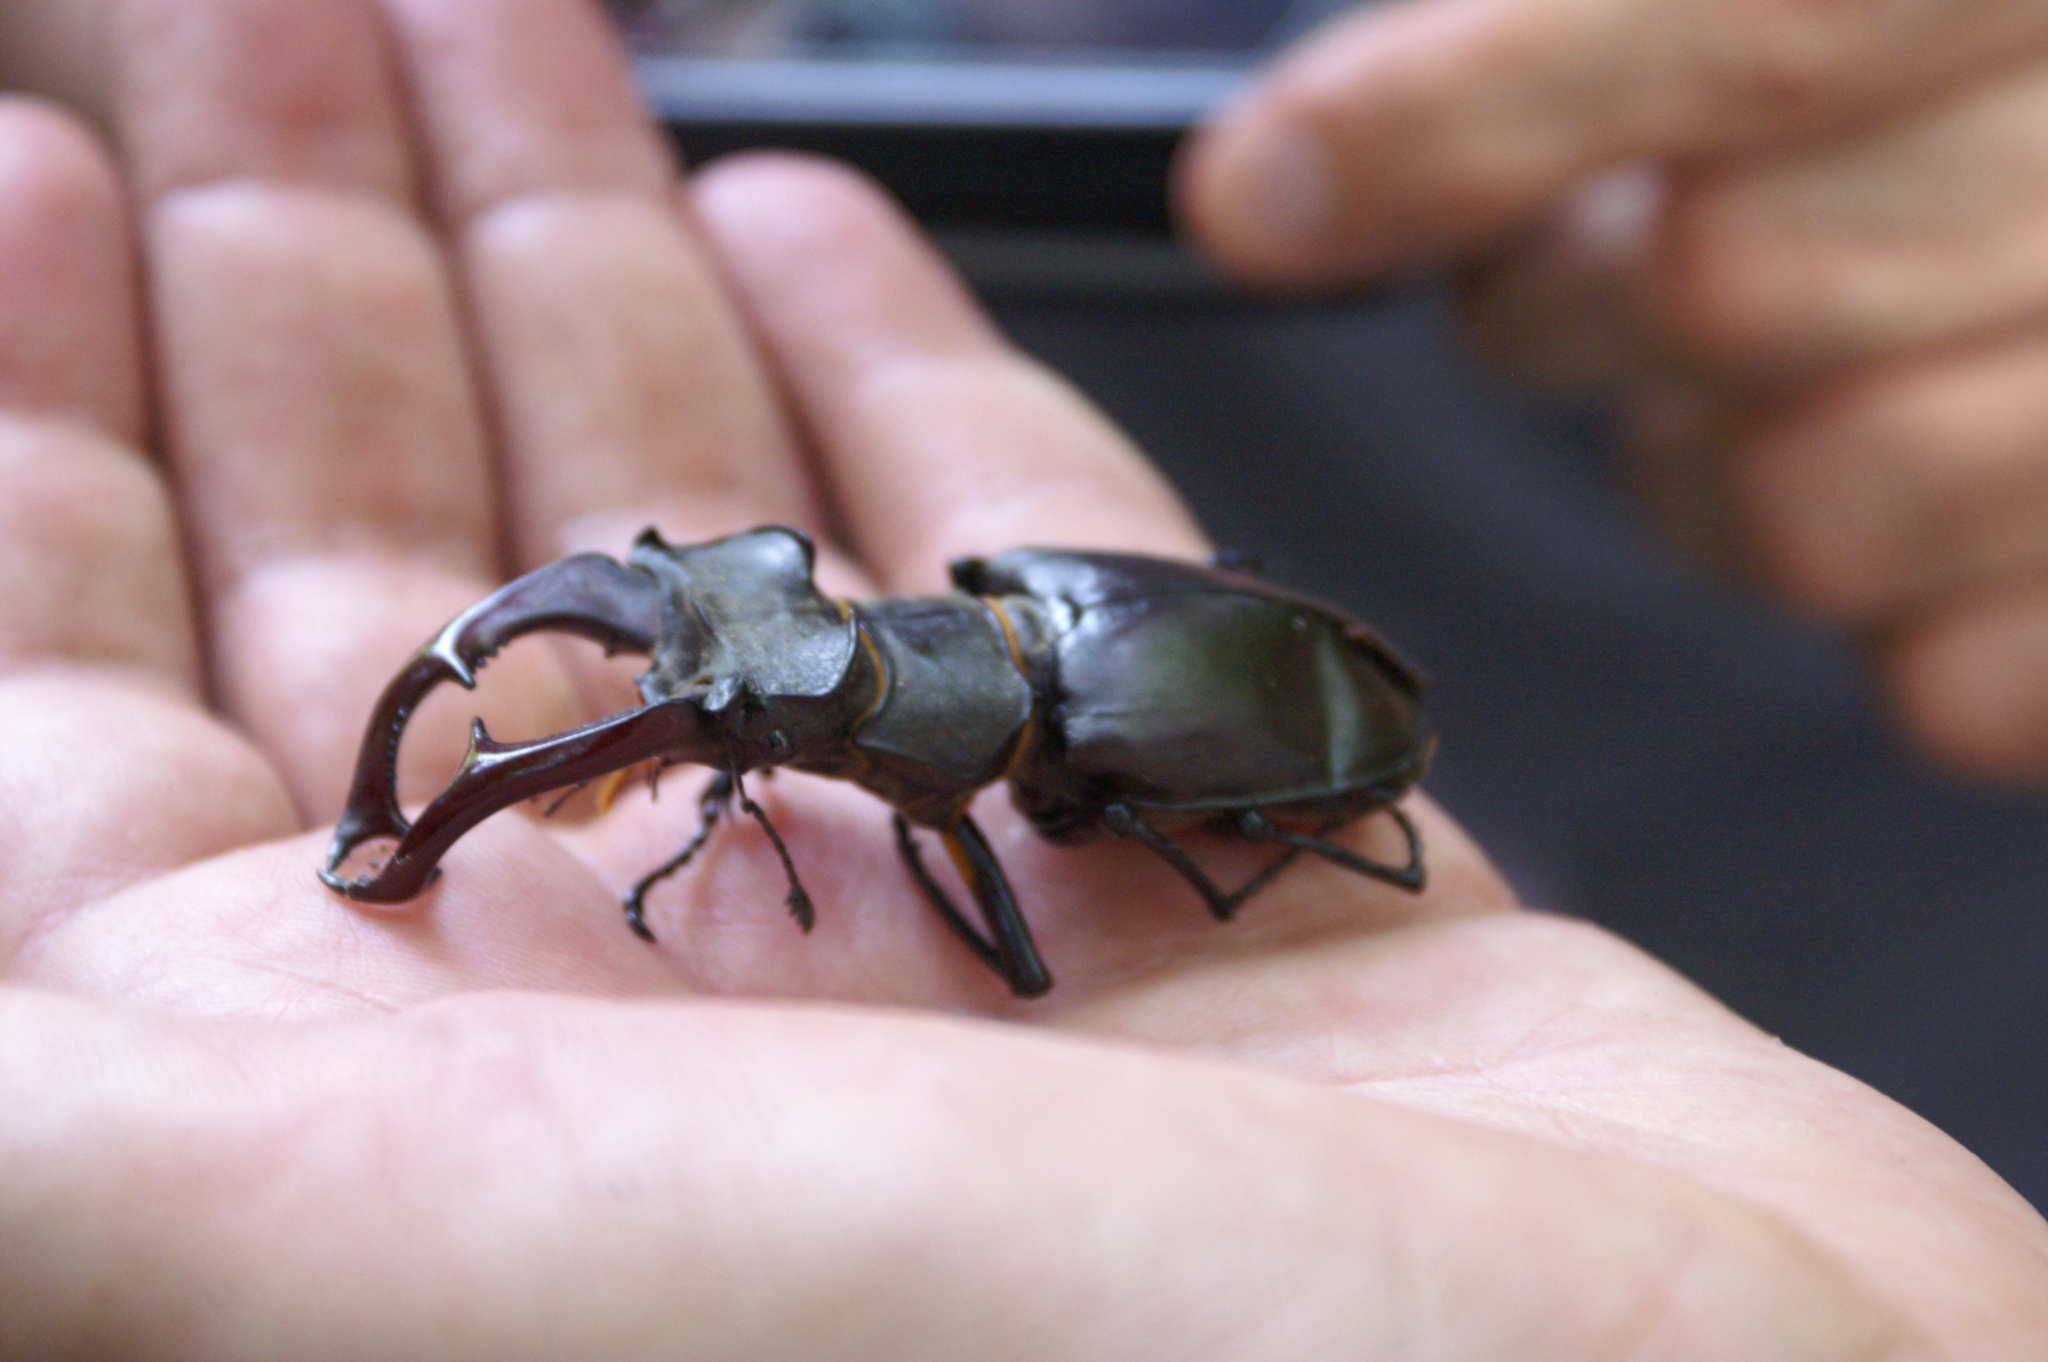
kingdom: Animalia
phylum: Arthropoda
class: Insecta
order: Coleoptera
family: Lucanidae
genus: Lucanus
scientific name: Lucanus cervus
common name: Stag beetle
